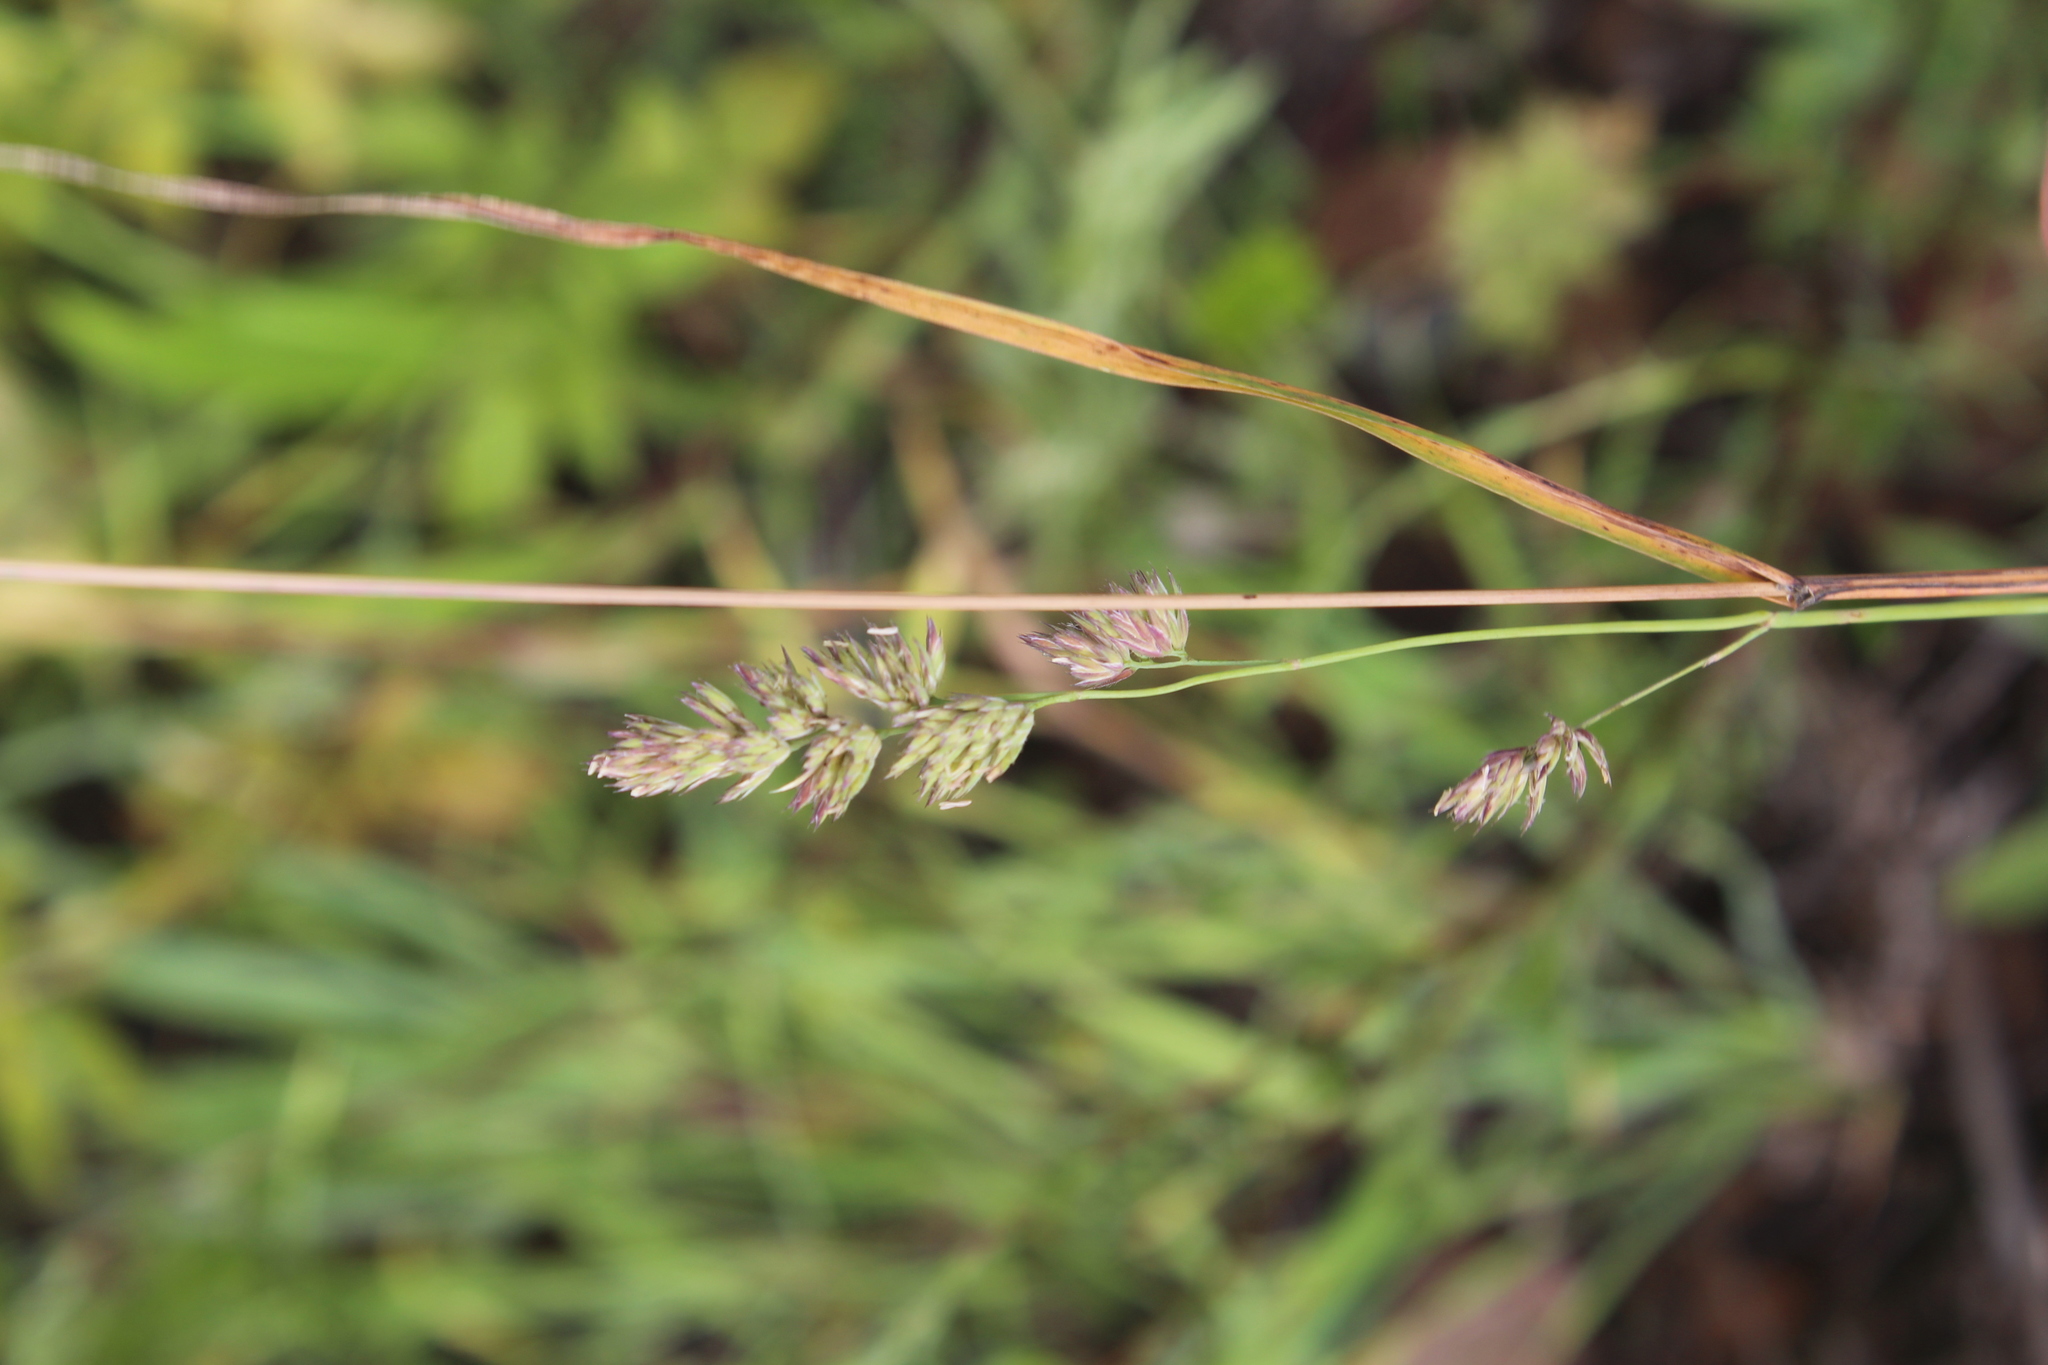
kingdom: Plantae
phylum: Tracheophyta
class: Liliopsida
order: Poales
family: Poaceae
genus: Dactylis
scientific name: Dactylis glomerata
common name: Orchardgrass
